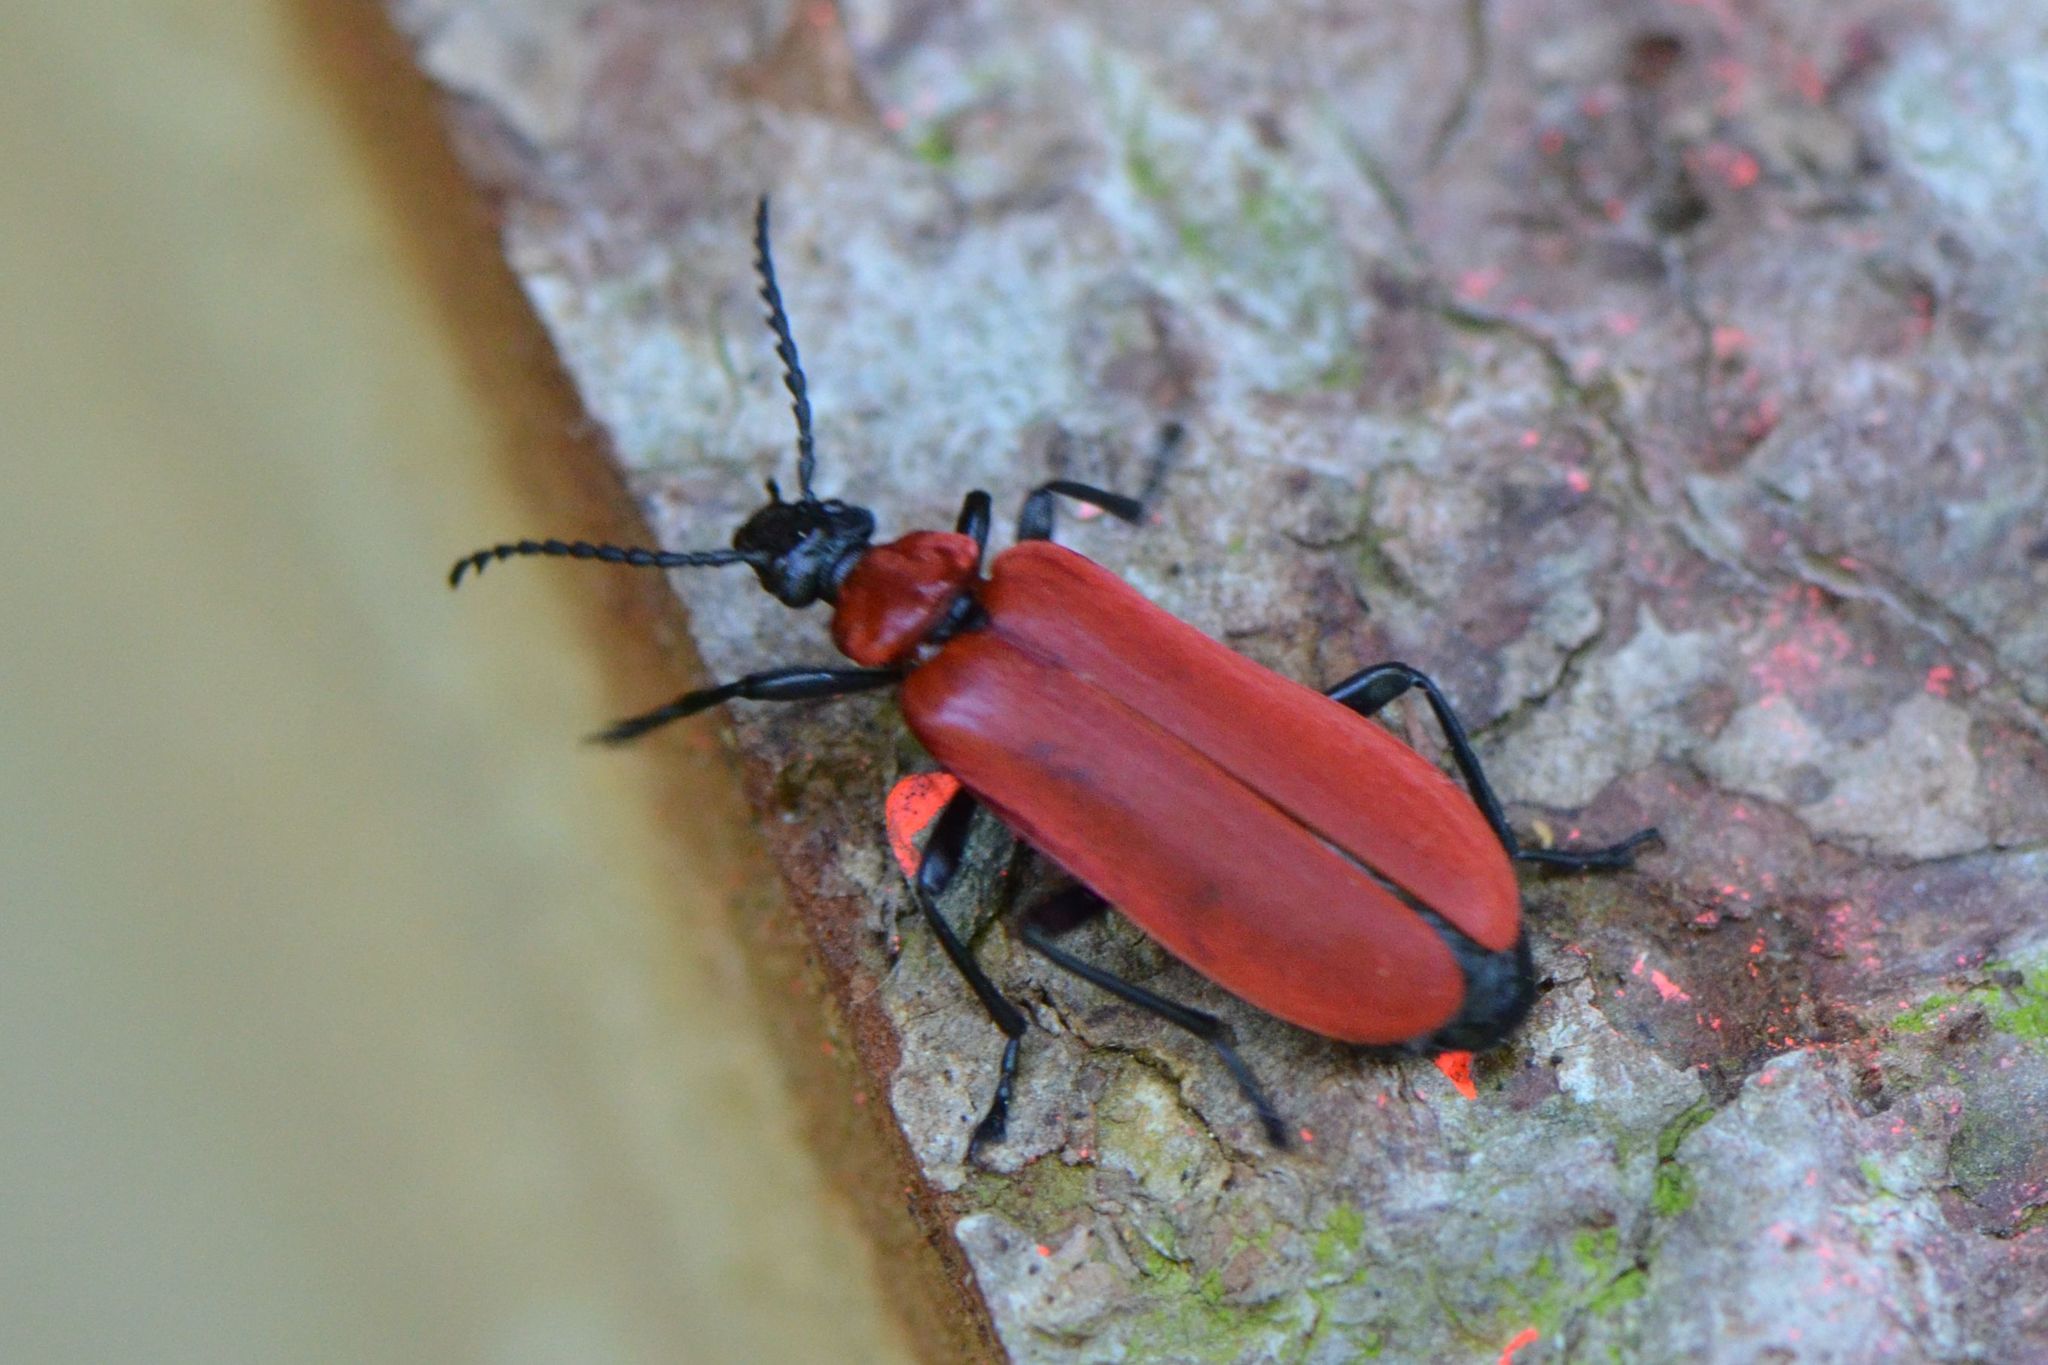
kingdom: Animalia
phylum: Arthropoda
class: Insecta
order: Coleoptera
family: Pyrochroidae
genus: Pyrochroa
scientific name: Pyrochroa coccinea
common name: Black-headed cardinal beetle
